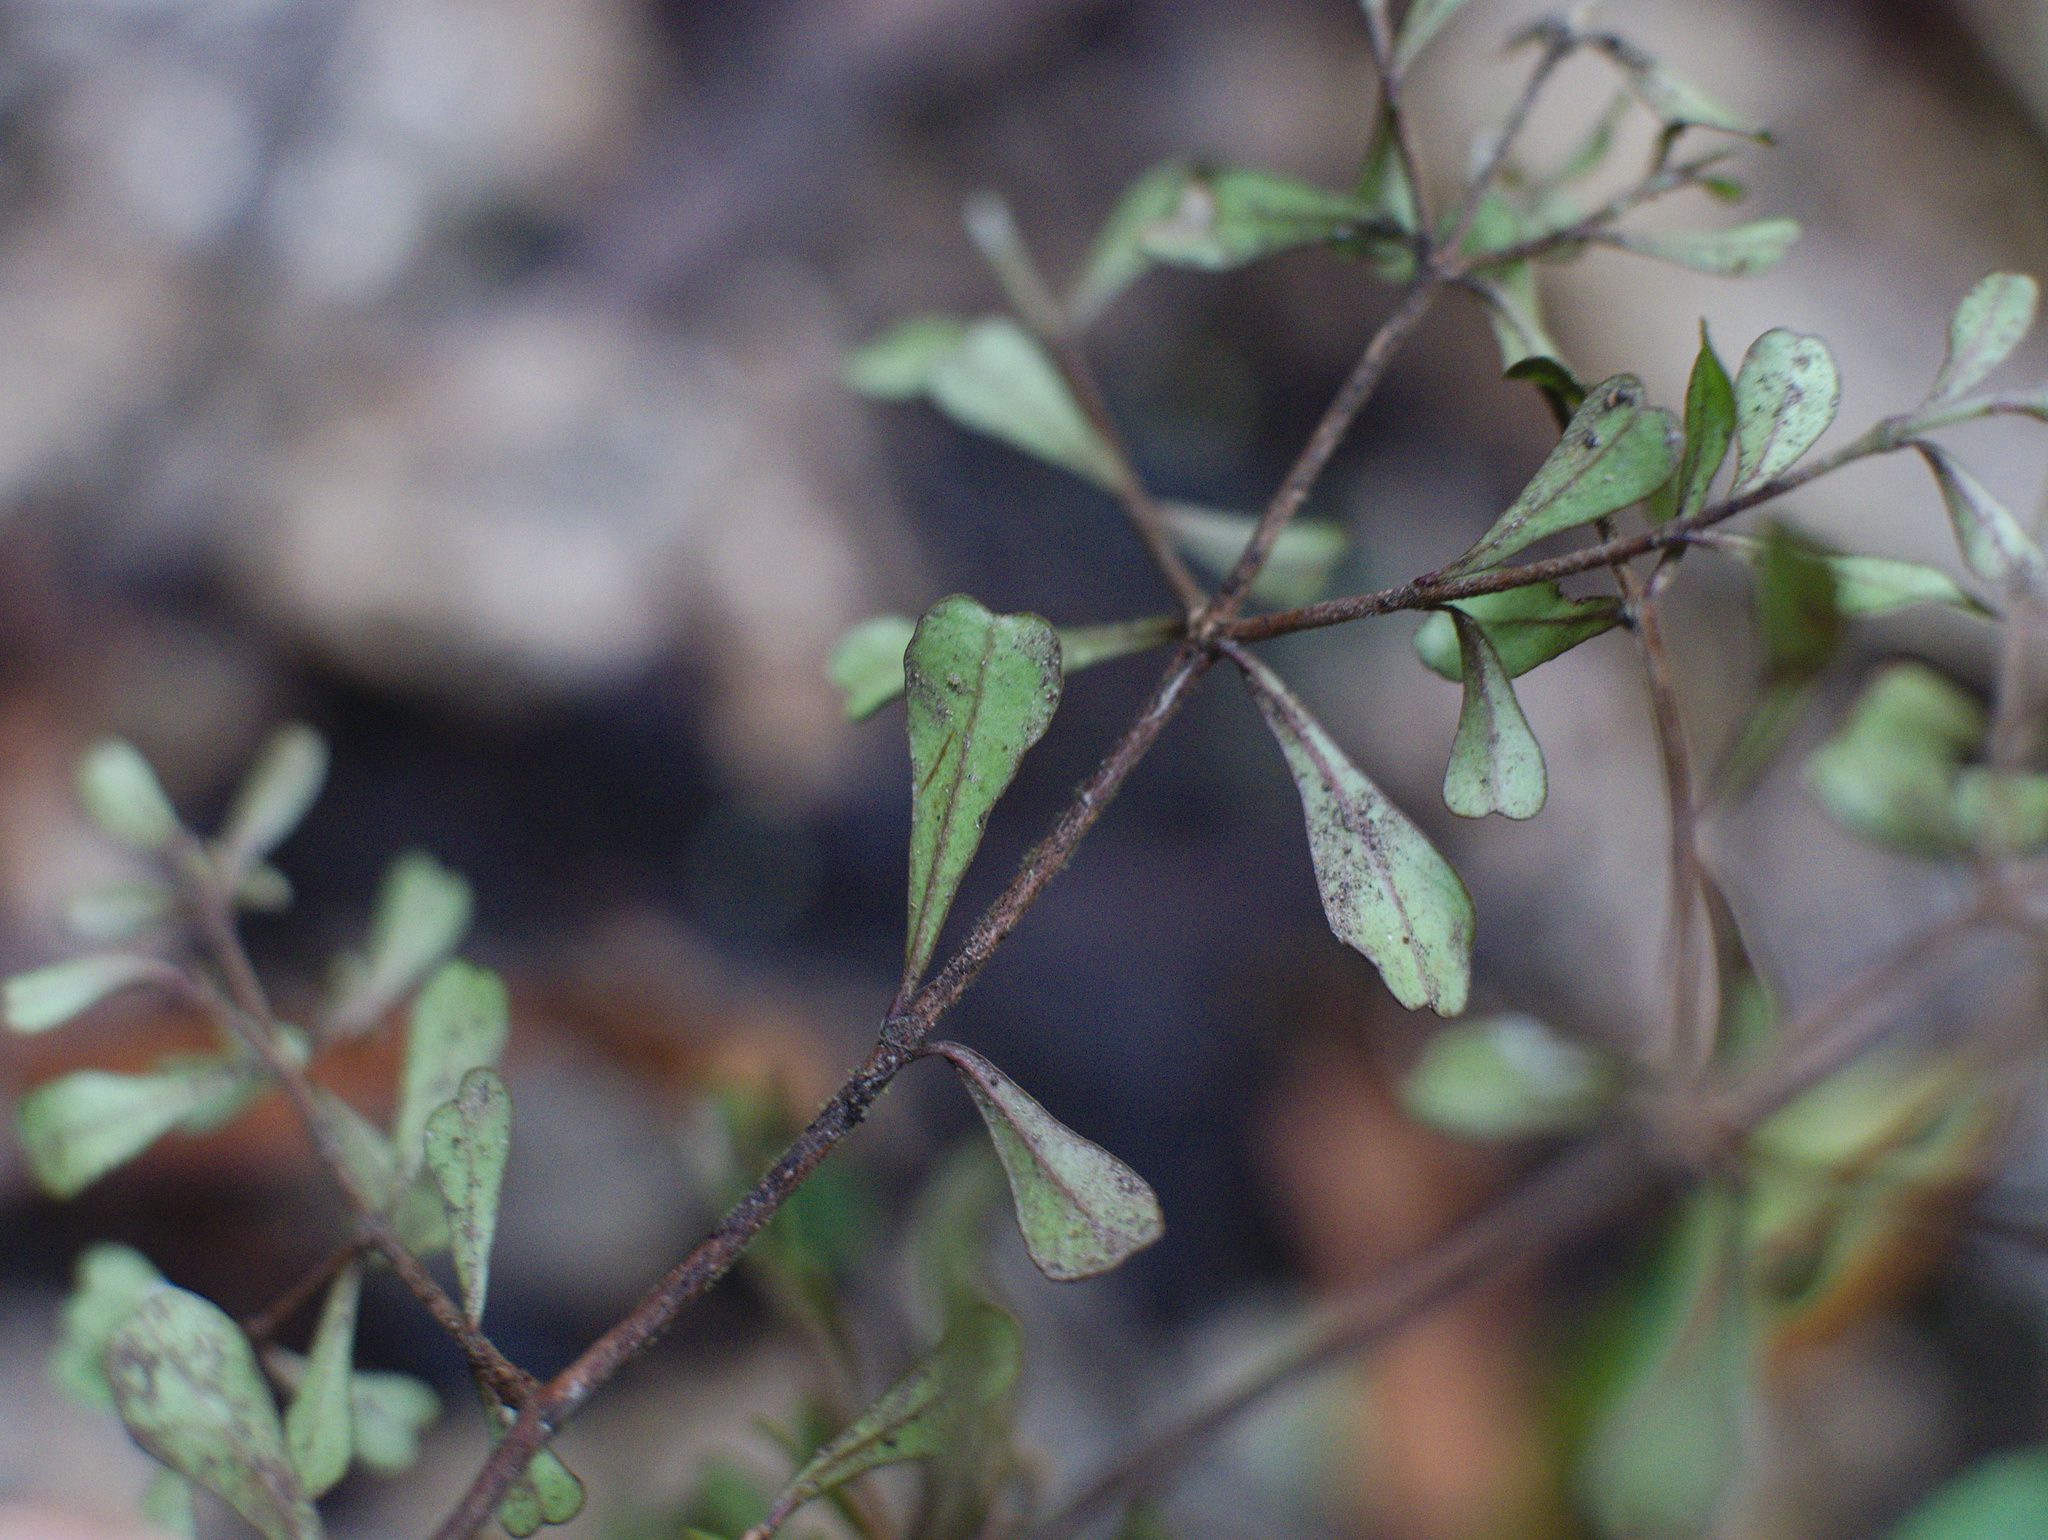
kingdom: Plantae
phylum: Tracheophyta
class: Magnoliopsida
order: Myrtales
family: Myrtaceae
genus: Lophomyrtus
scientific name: Lophomyrtus obcordata
